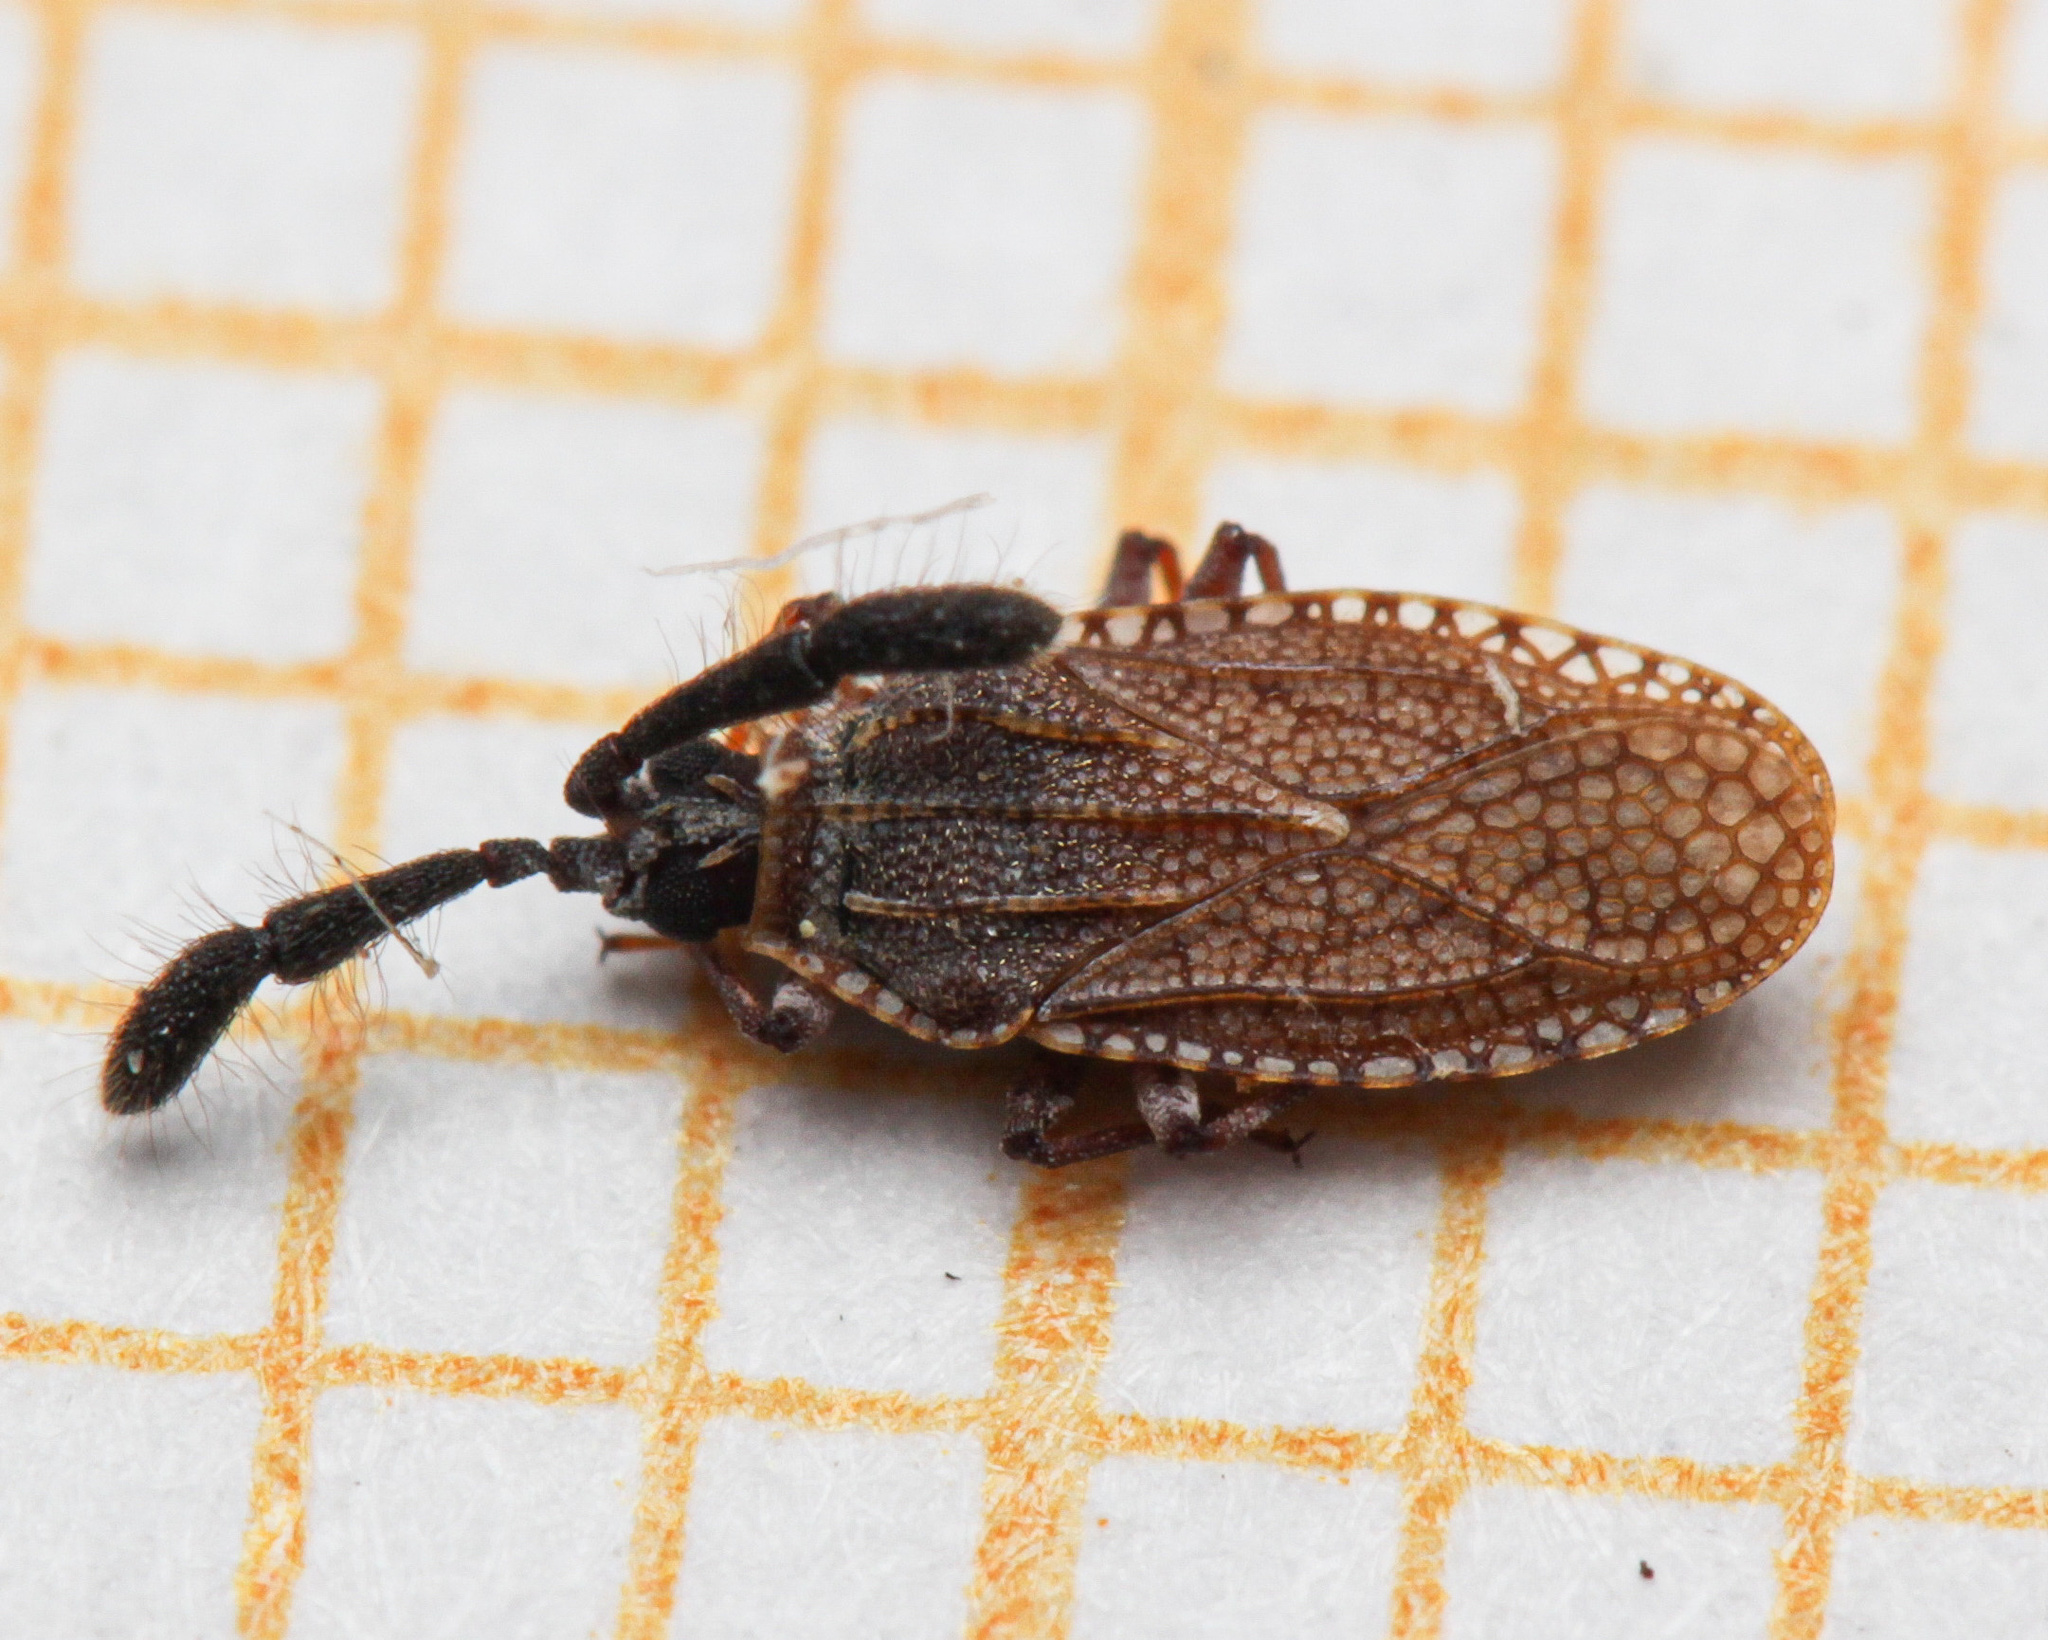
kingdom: Animalia
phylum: Arthropoda
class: Insecta
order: Hemiptera
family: Tingidae
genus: Copium
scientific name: Copium clavicorne
